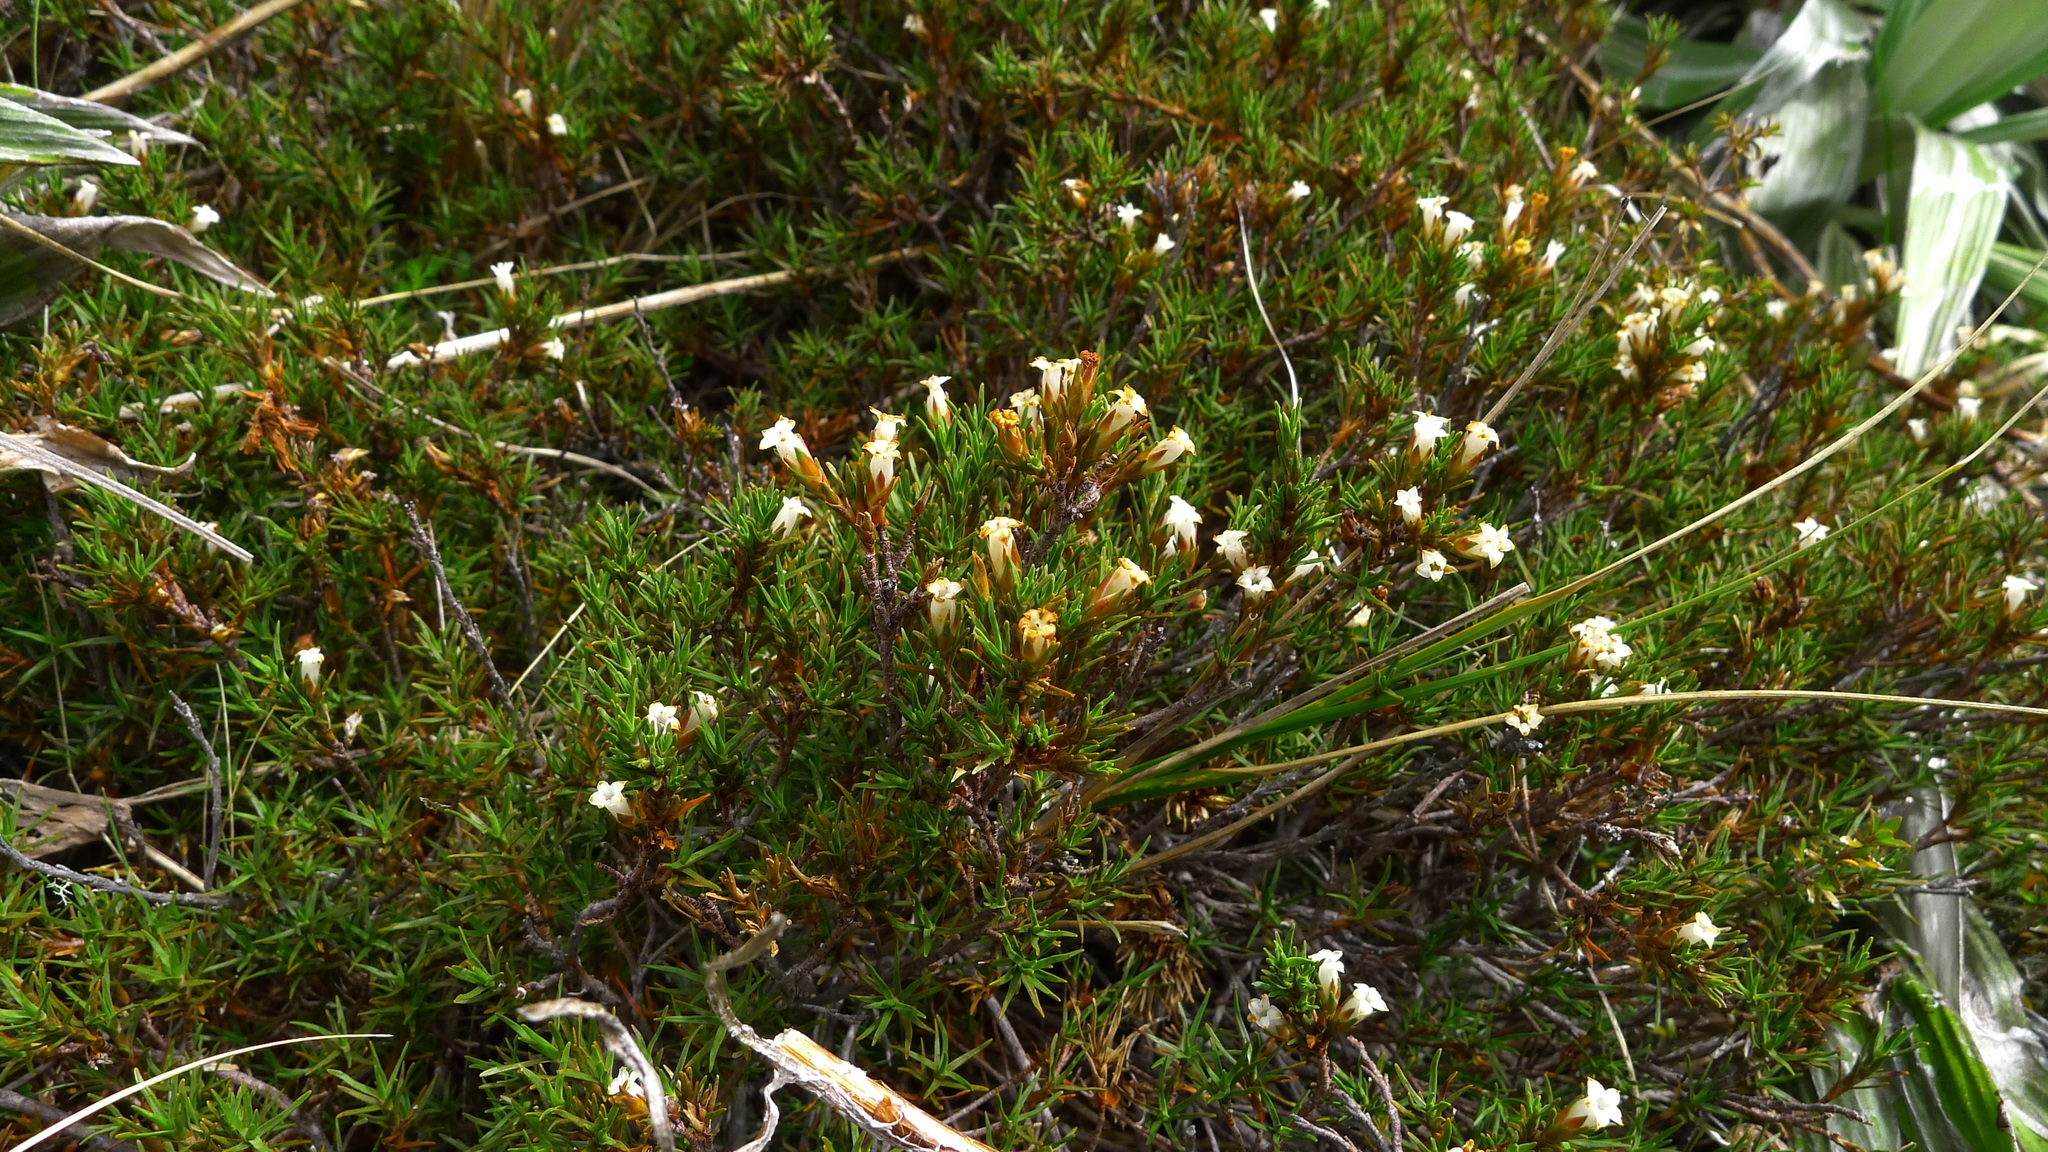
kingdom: Plantae
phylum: Tracheophyta
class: Magnoliopsida
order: Ericales
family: Ericaceae
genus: Dracophyllum
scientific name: Dracophyllum rosmarinifolium
